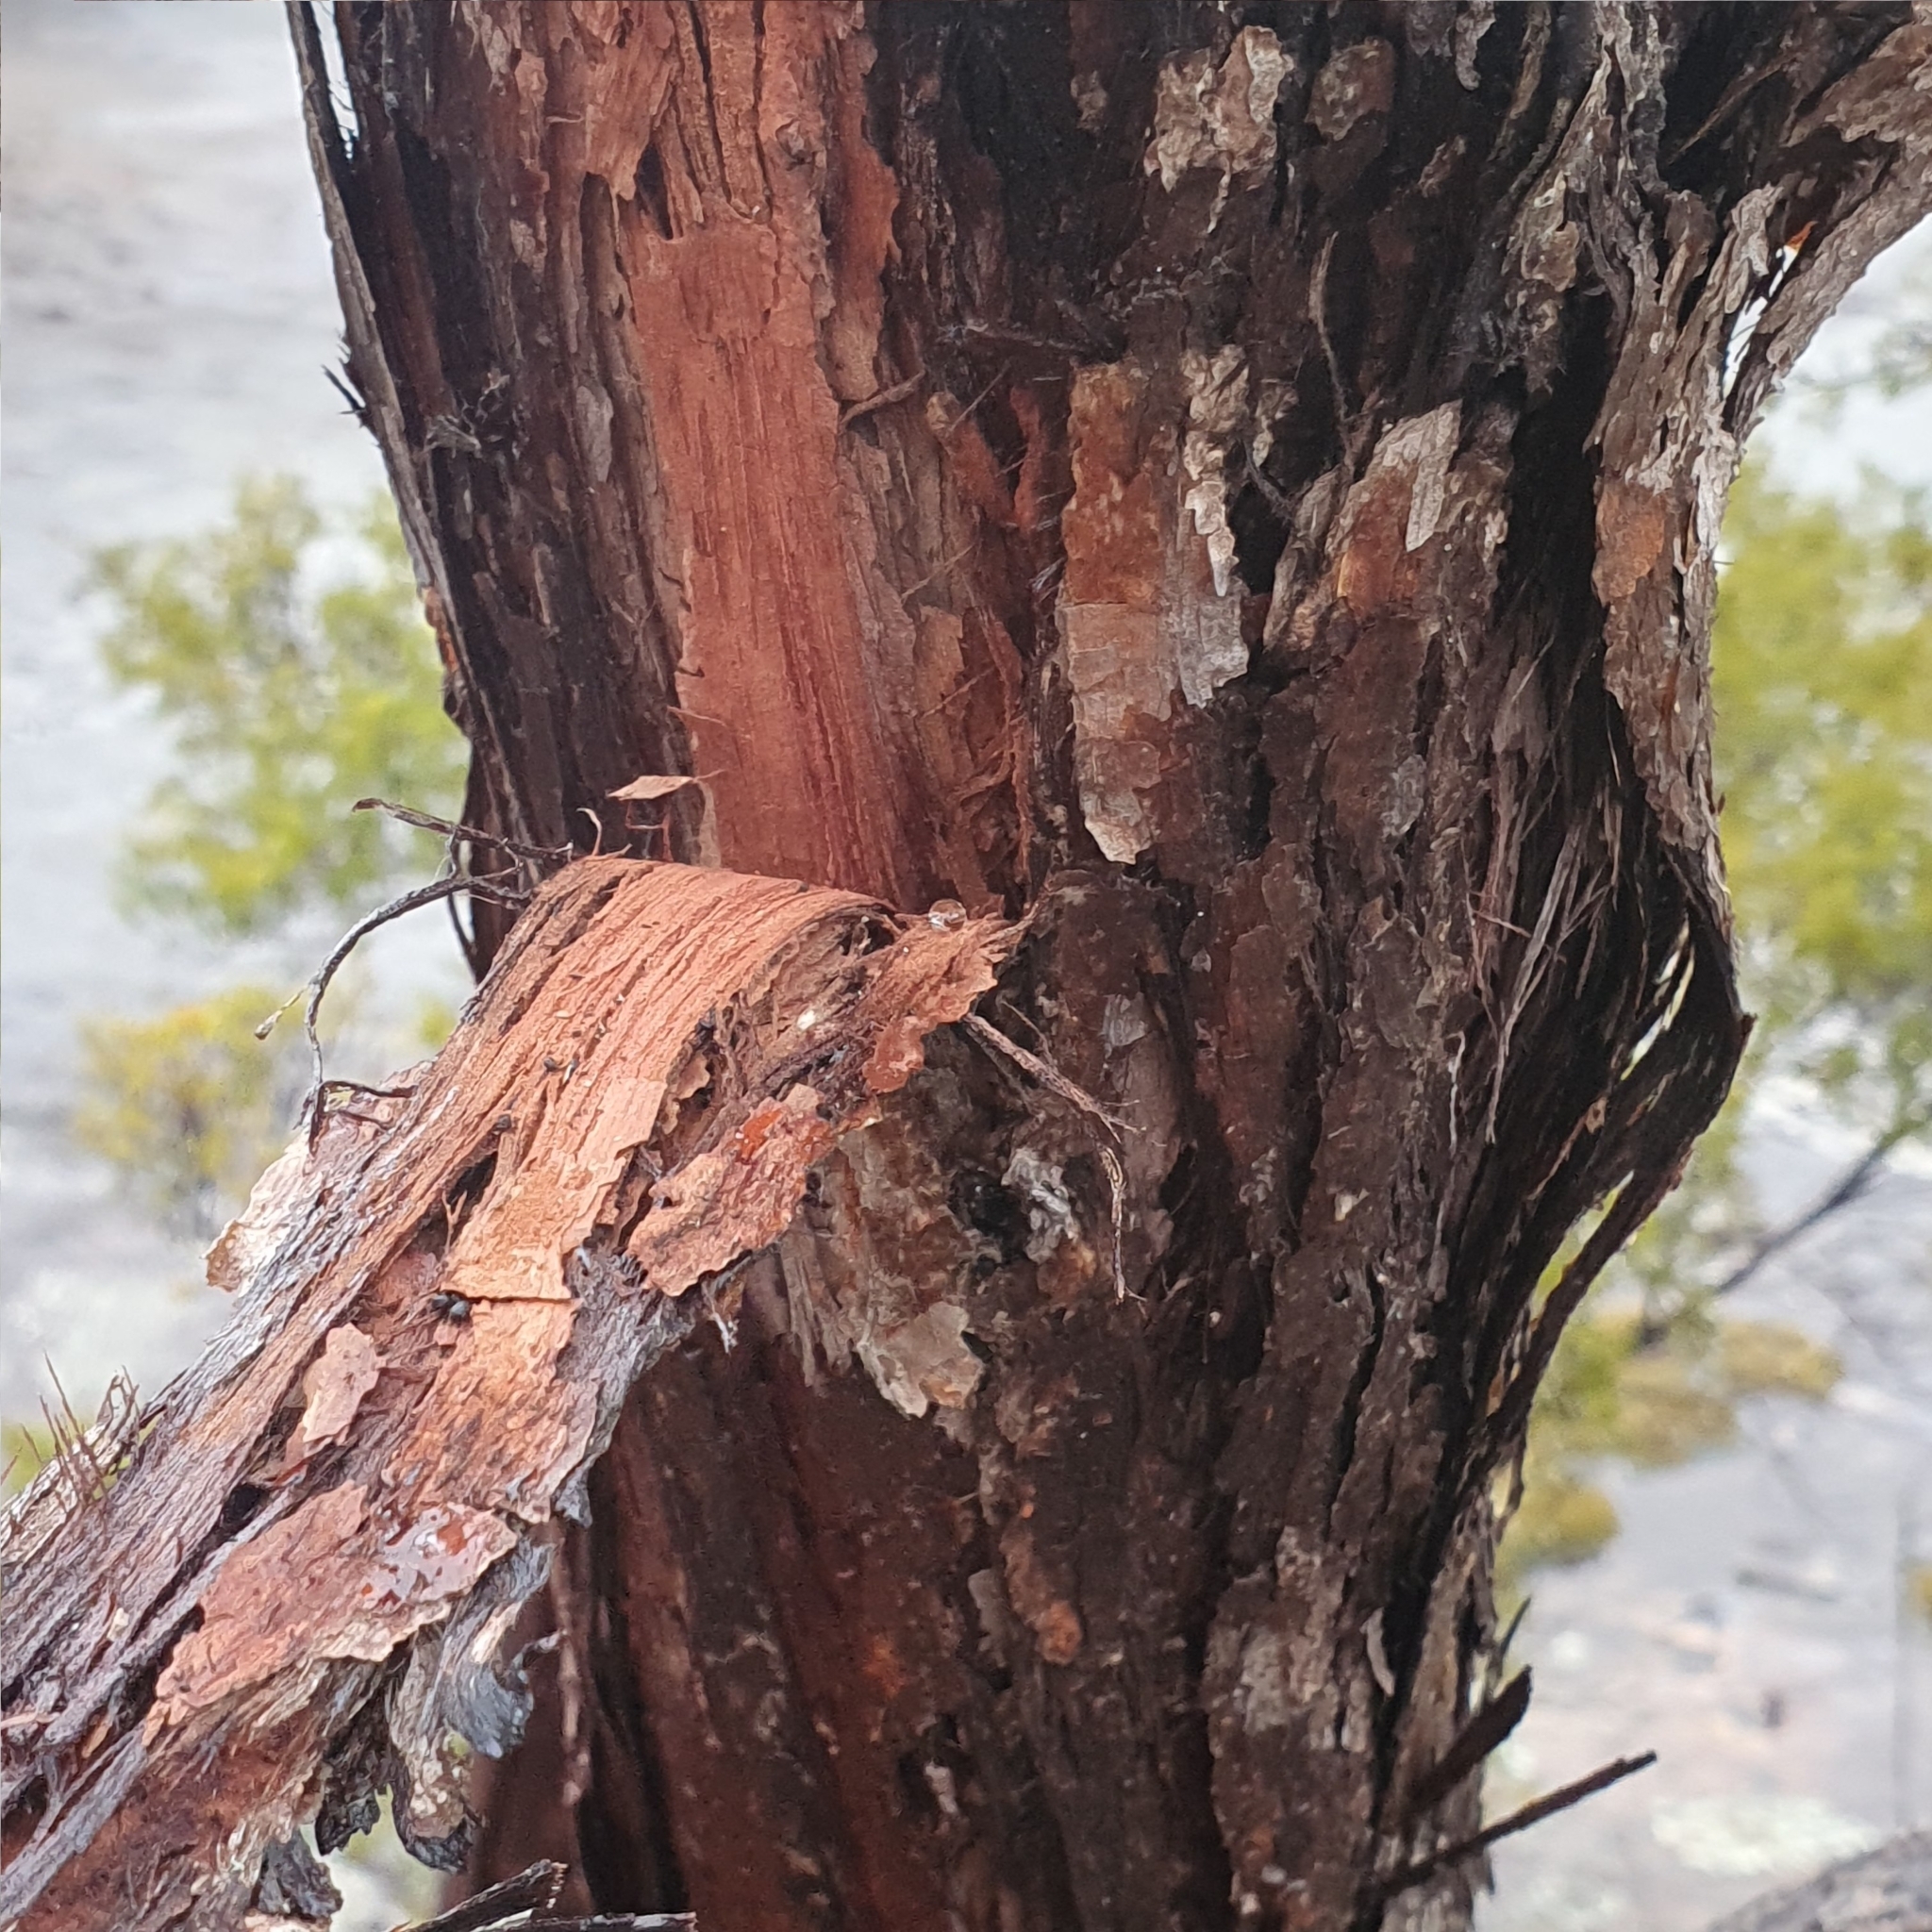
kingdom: Plantae
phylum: Tracheophyta
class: Magnoliopsida
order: Myrtales
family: Myrtaceae
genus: Eucalyptus
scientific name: Eucalyptus notabilis
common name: Blue mountains-mahogany
